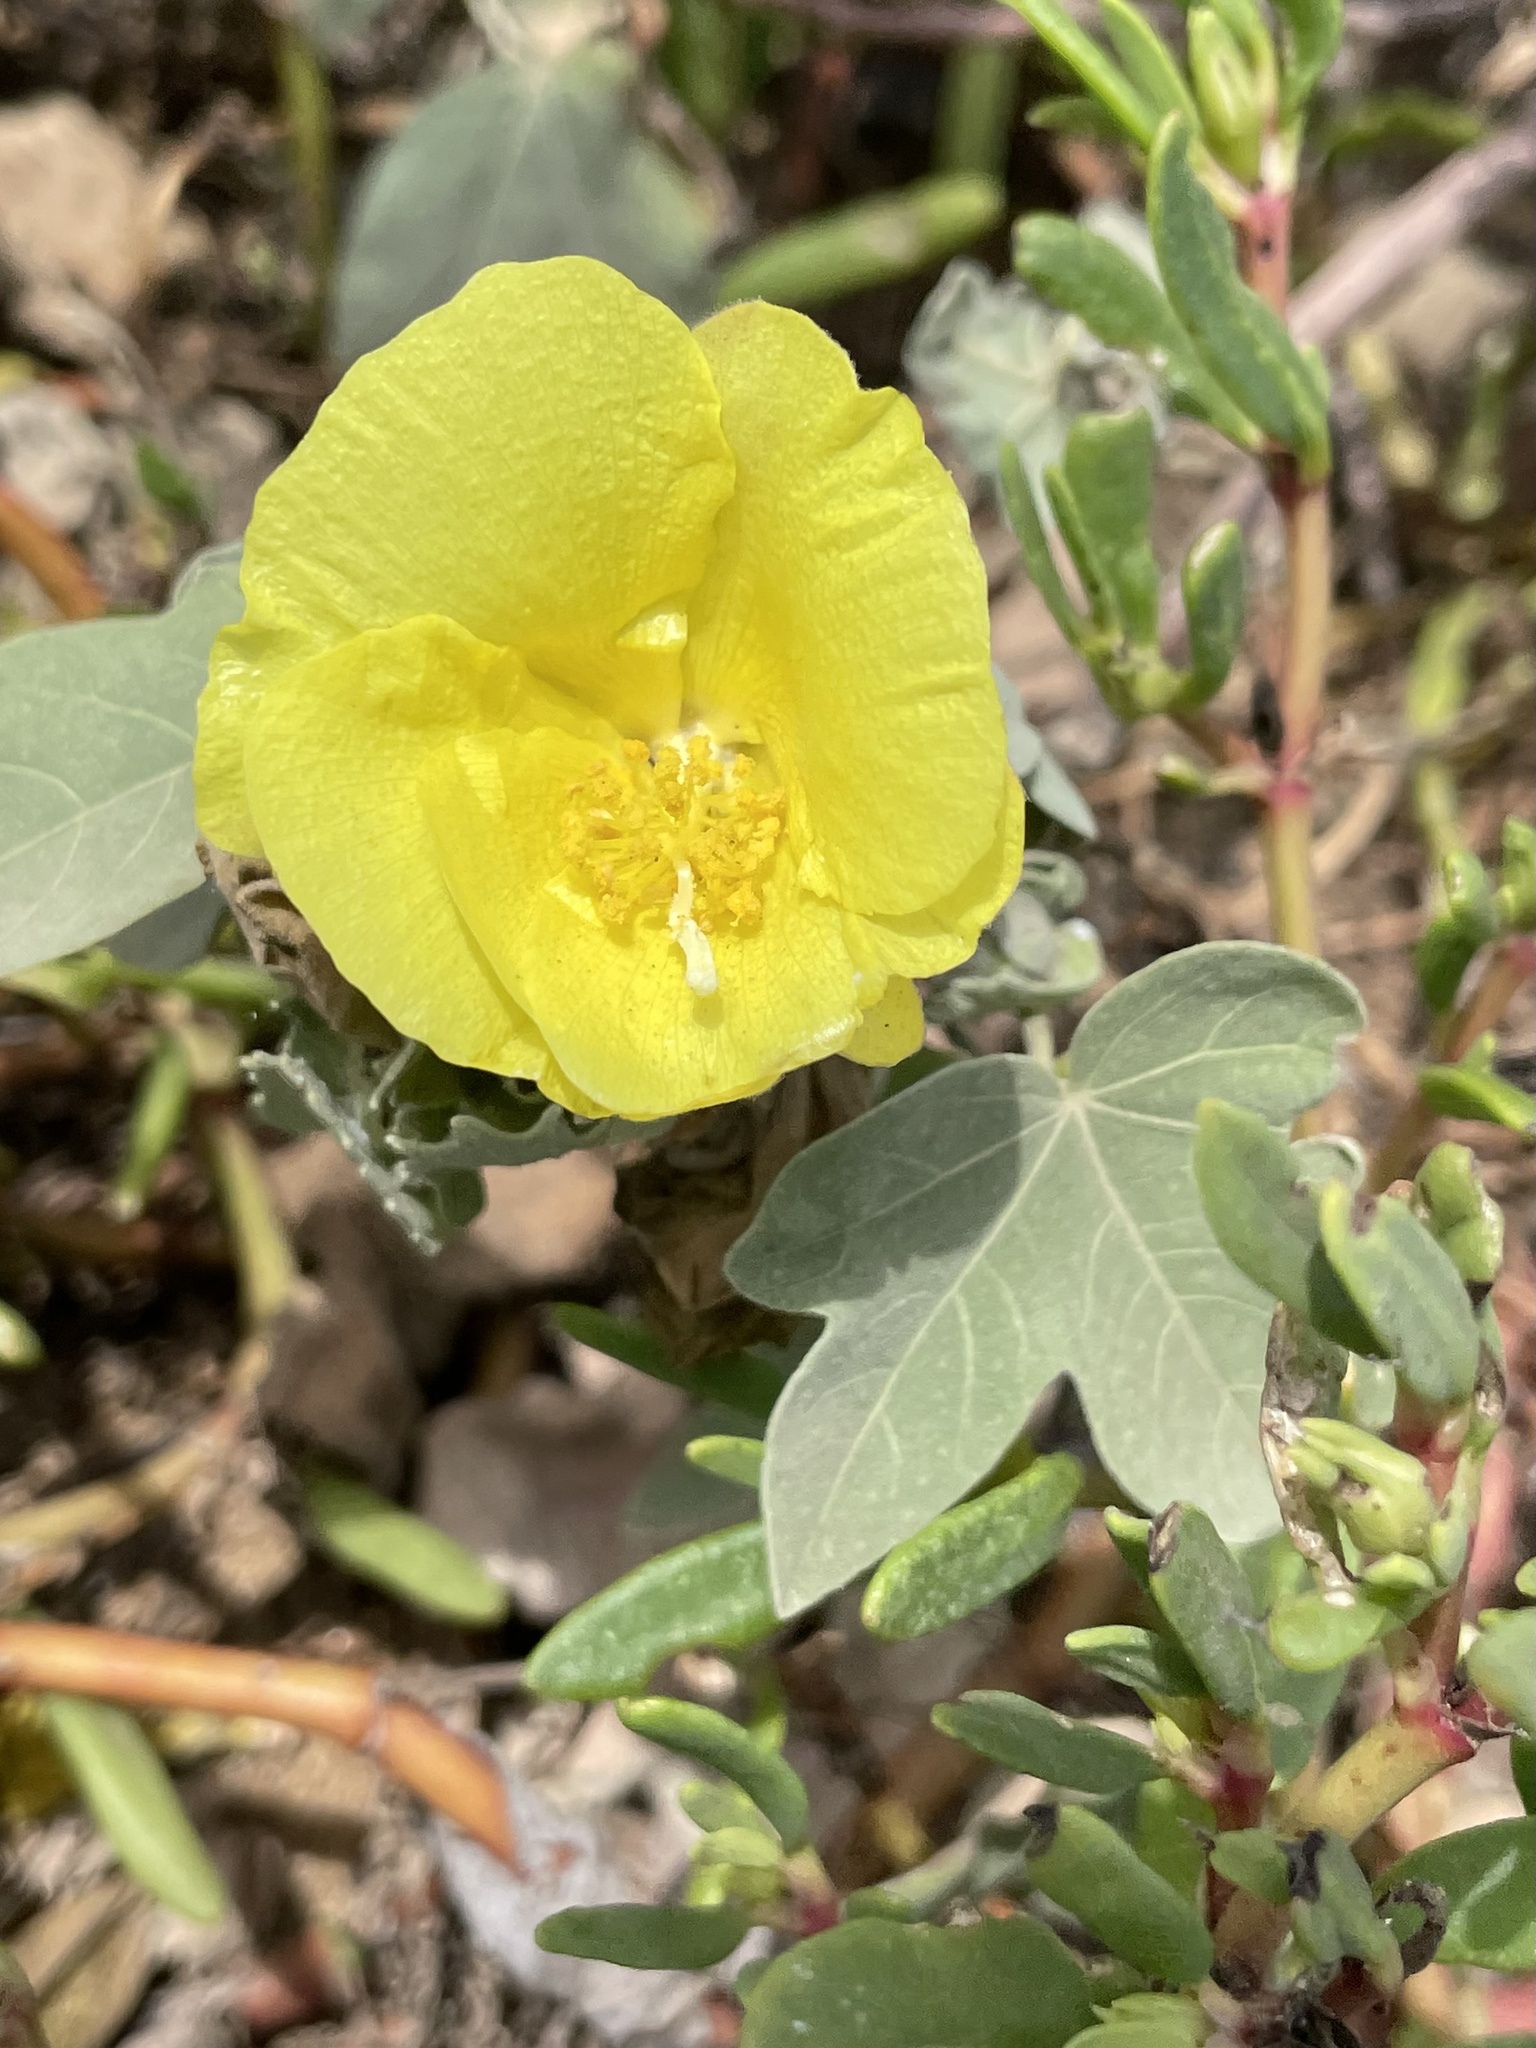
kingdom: Plantae
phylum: Tracheophyta
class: Magnoliopsida
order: Malvales
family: Malvaceae
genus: Gossypium
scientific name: Gossypium tomentosum
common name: Hawaiian cotton
